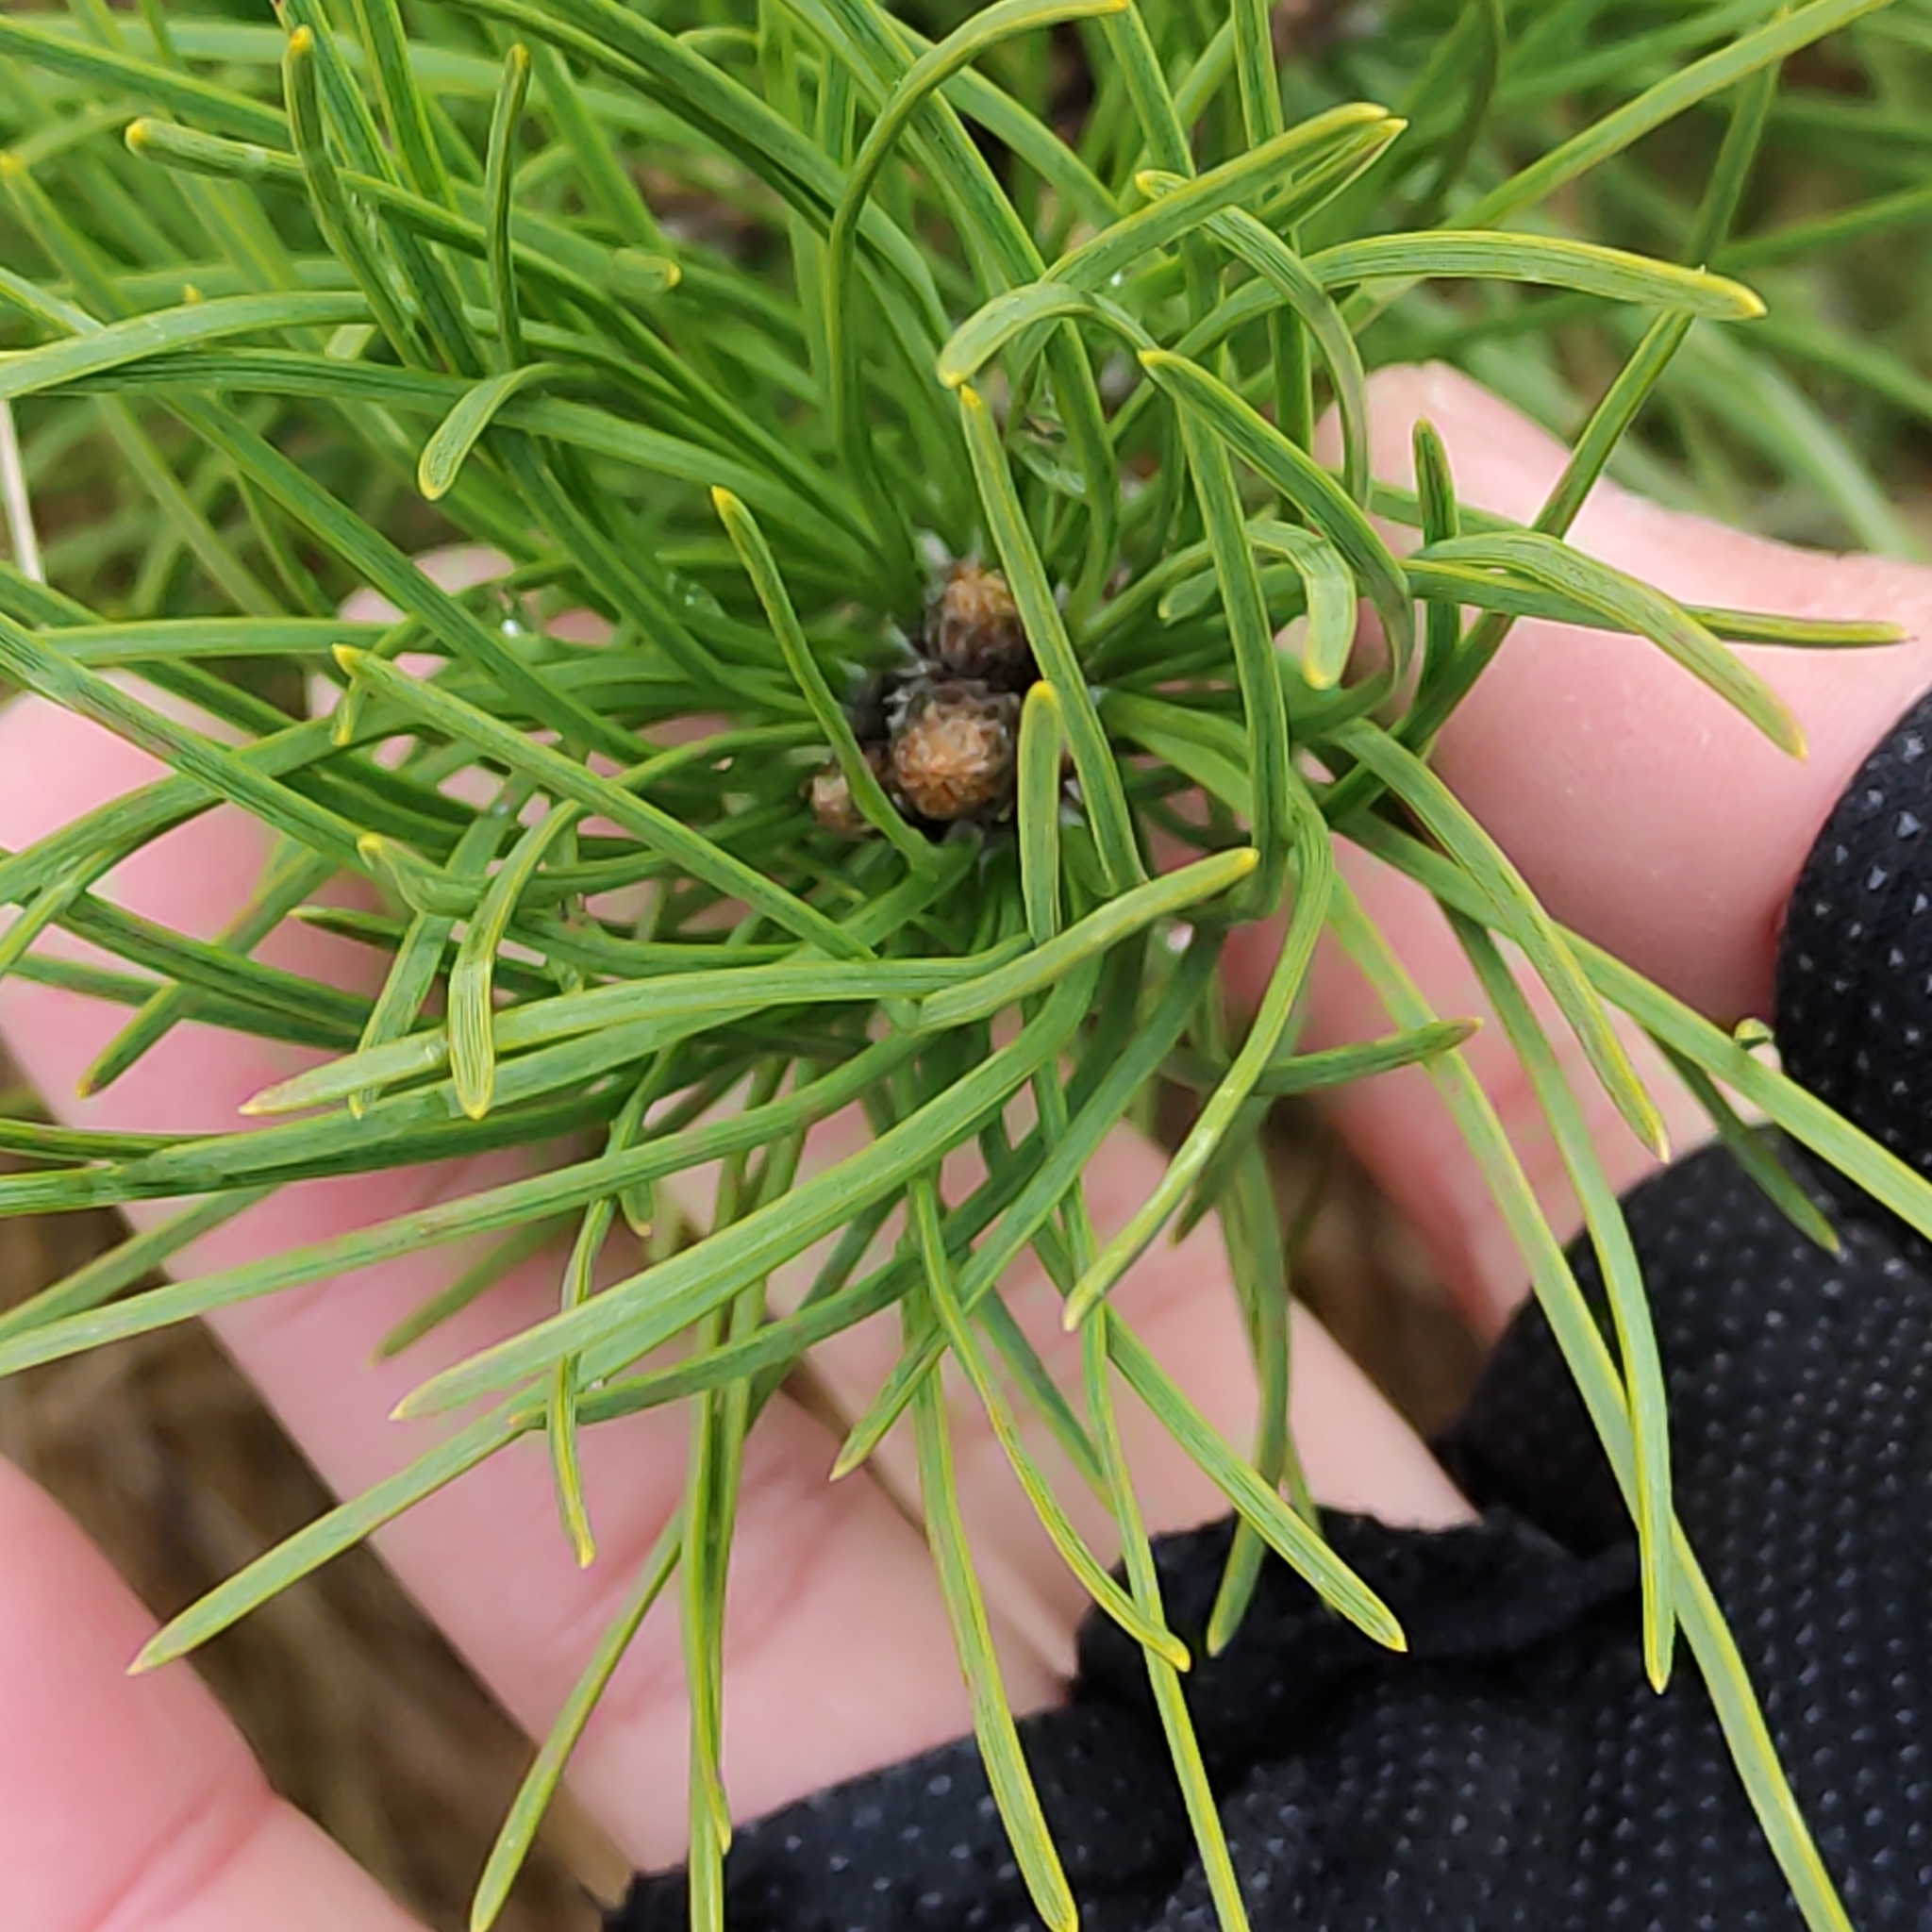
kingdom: Plantae
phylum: Tracheophyta
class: Pinopsida
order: Pinales
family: Pinaceae
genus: Pinus
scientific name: Pinus nigra
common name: Austrian pine
